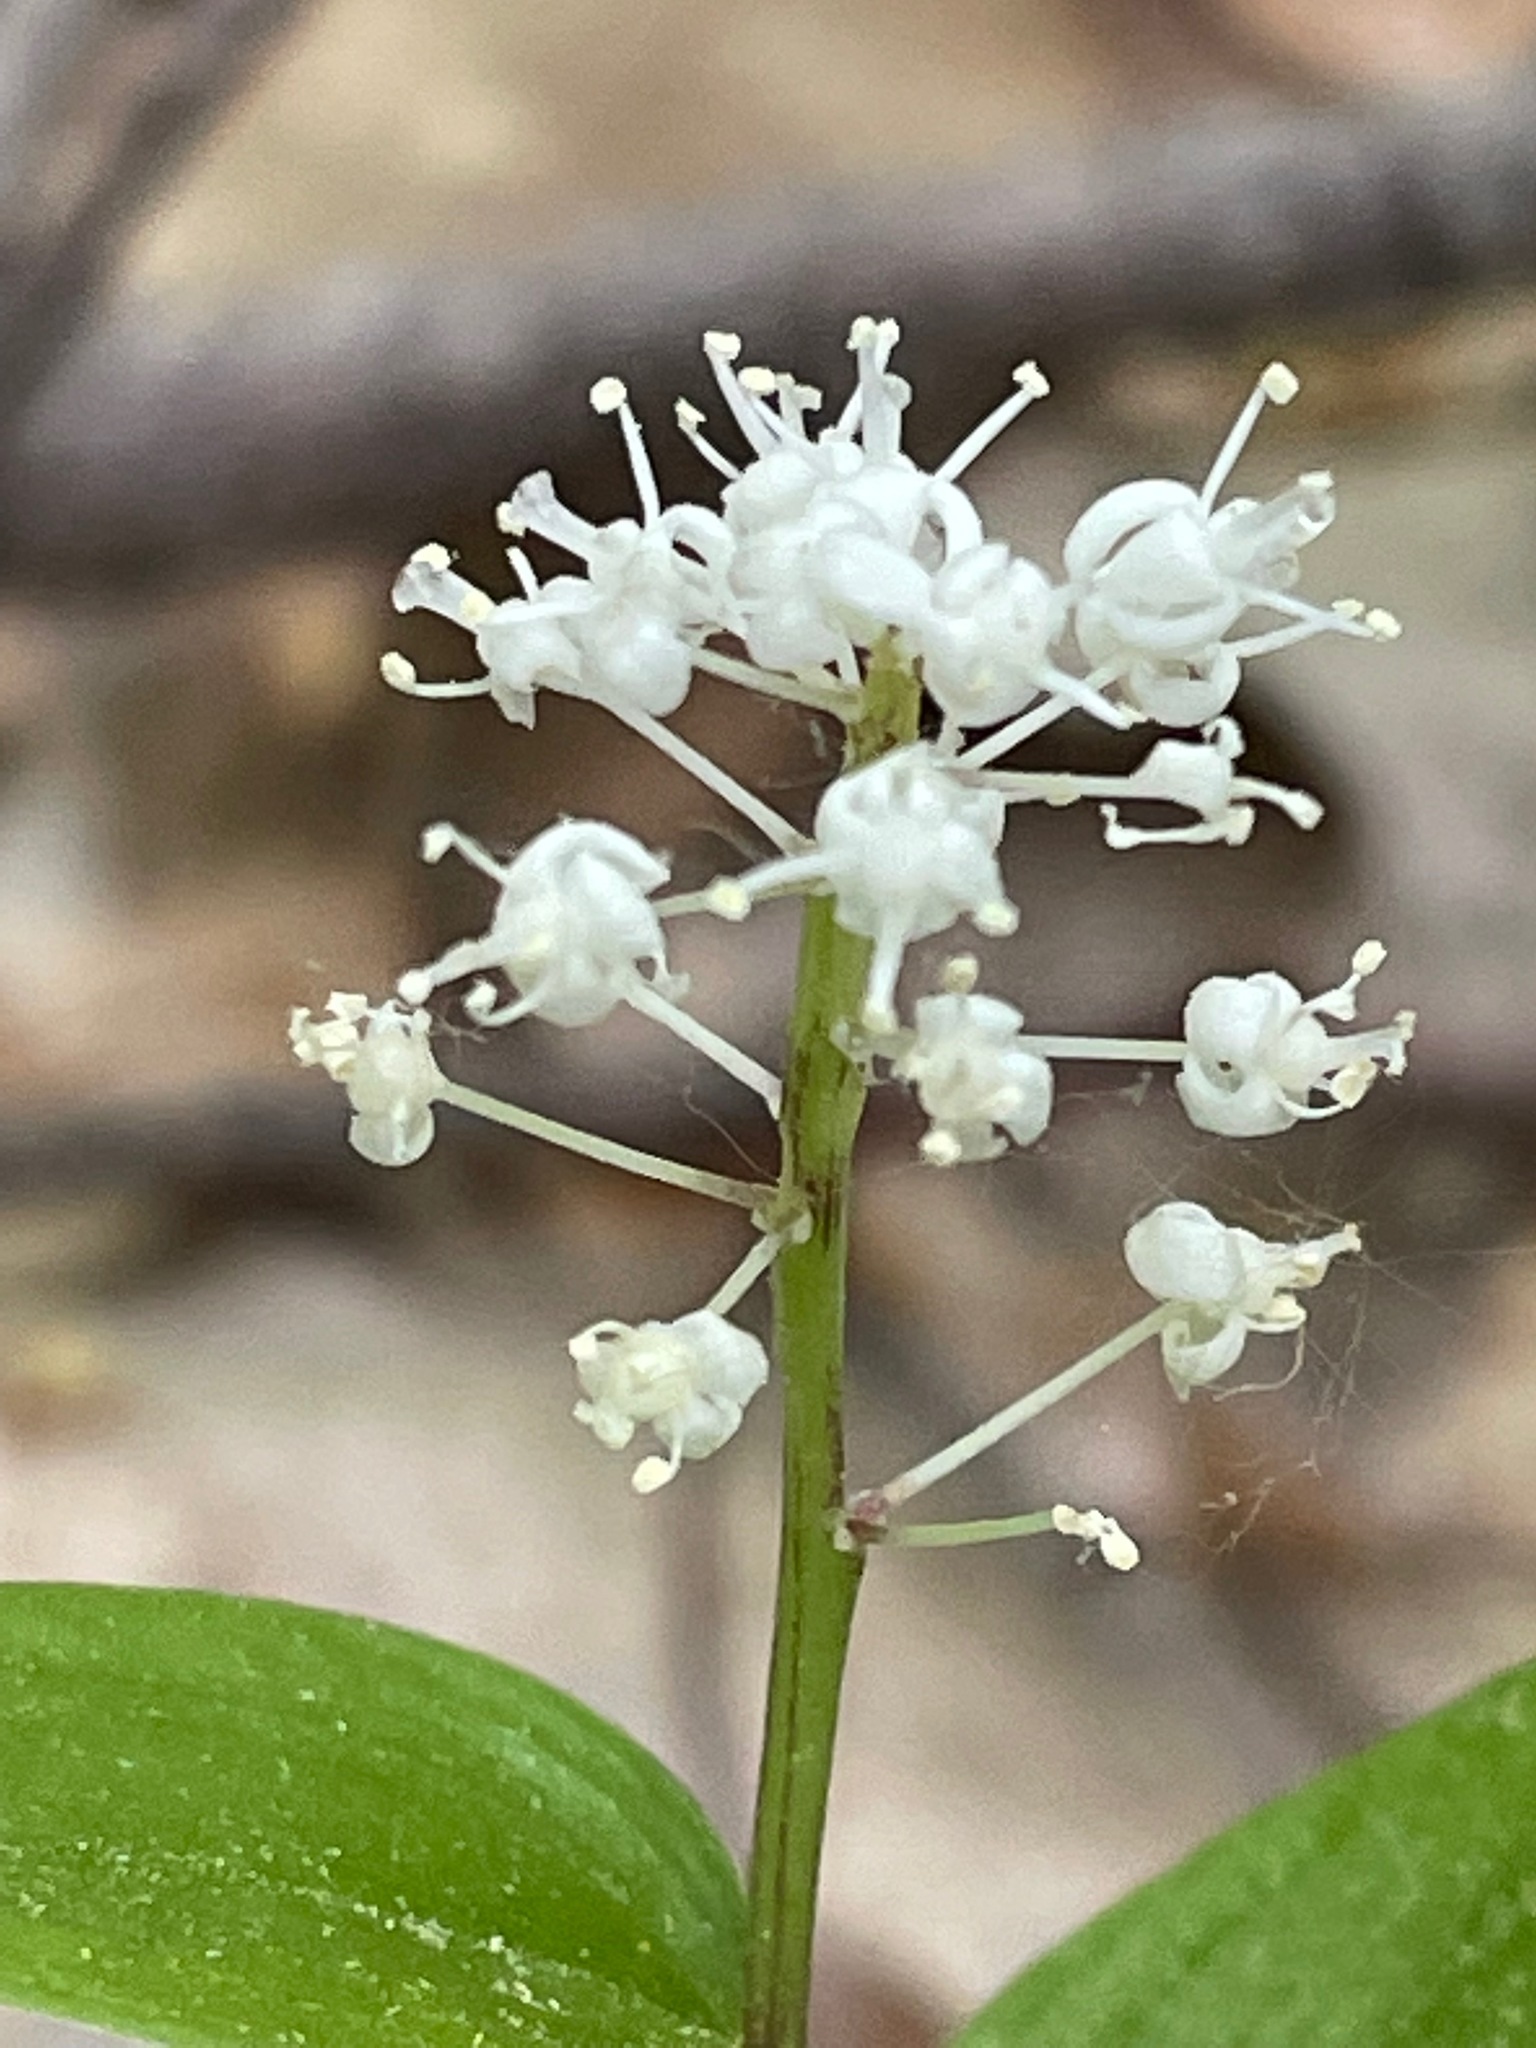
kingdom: Plantae
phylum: Tracheophyta
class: Liliopsida
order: Asparagales
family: Asparagaceae
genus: Maianthemum
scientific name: Maianthemum canadense
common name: False lily-of-the-valley
